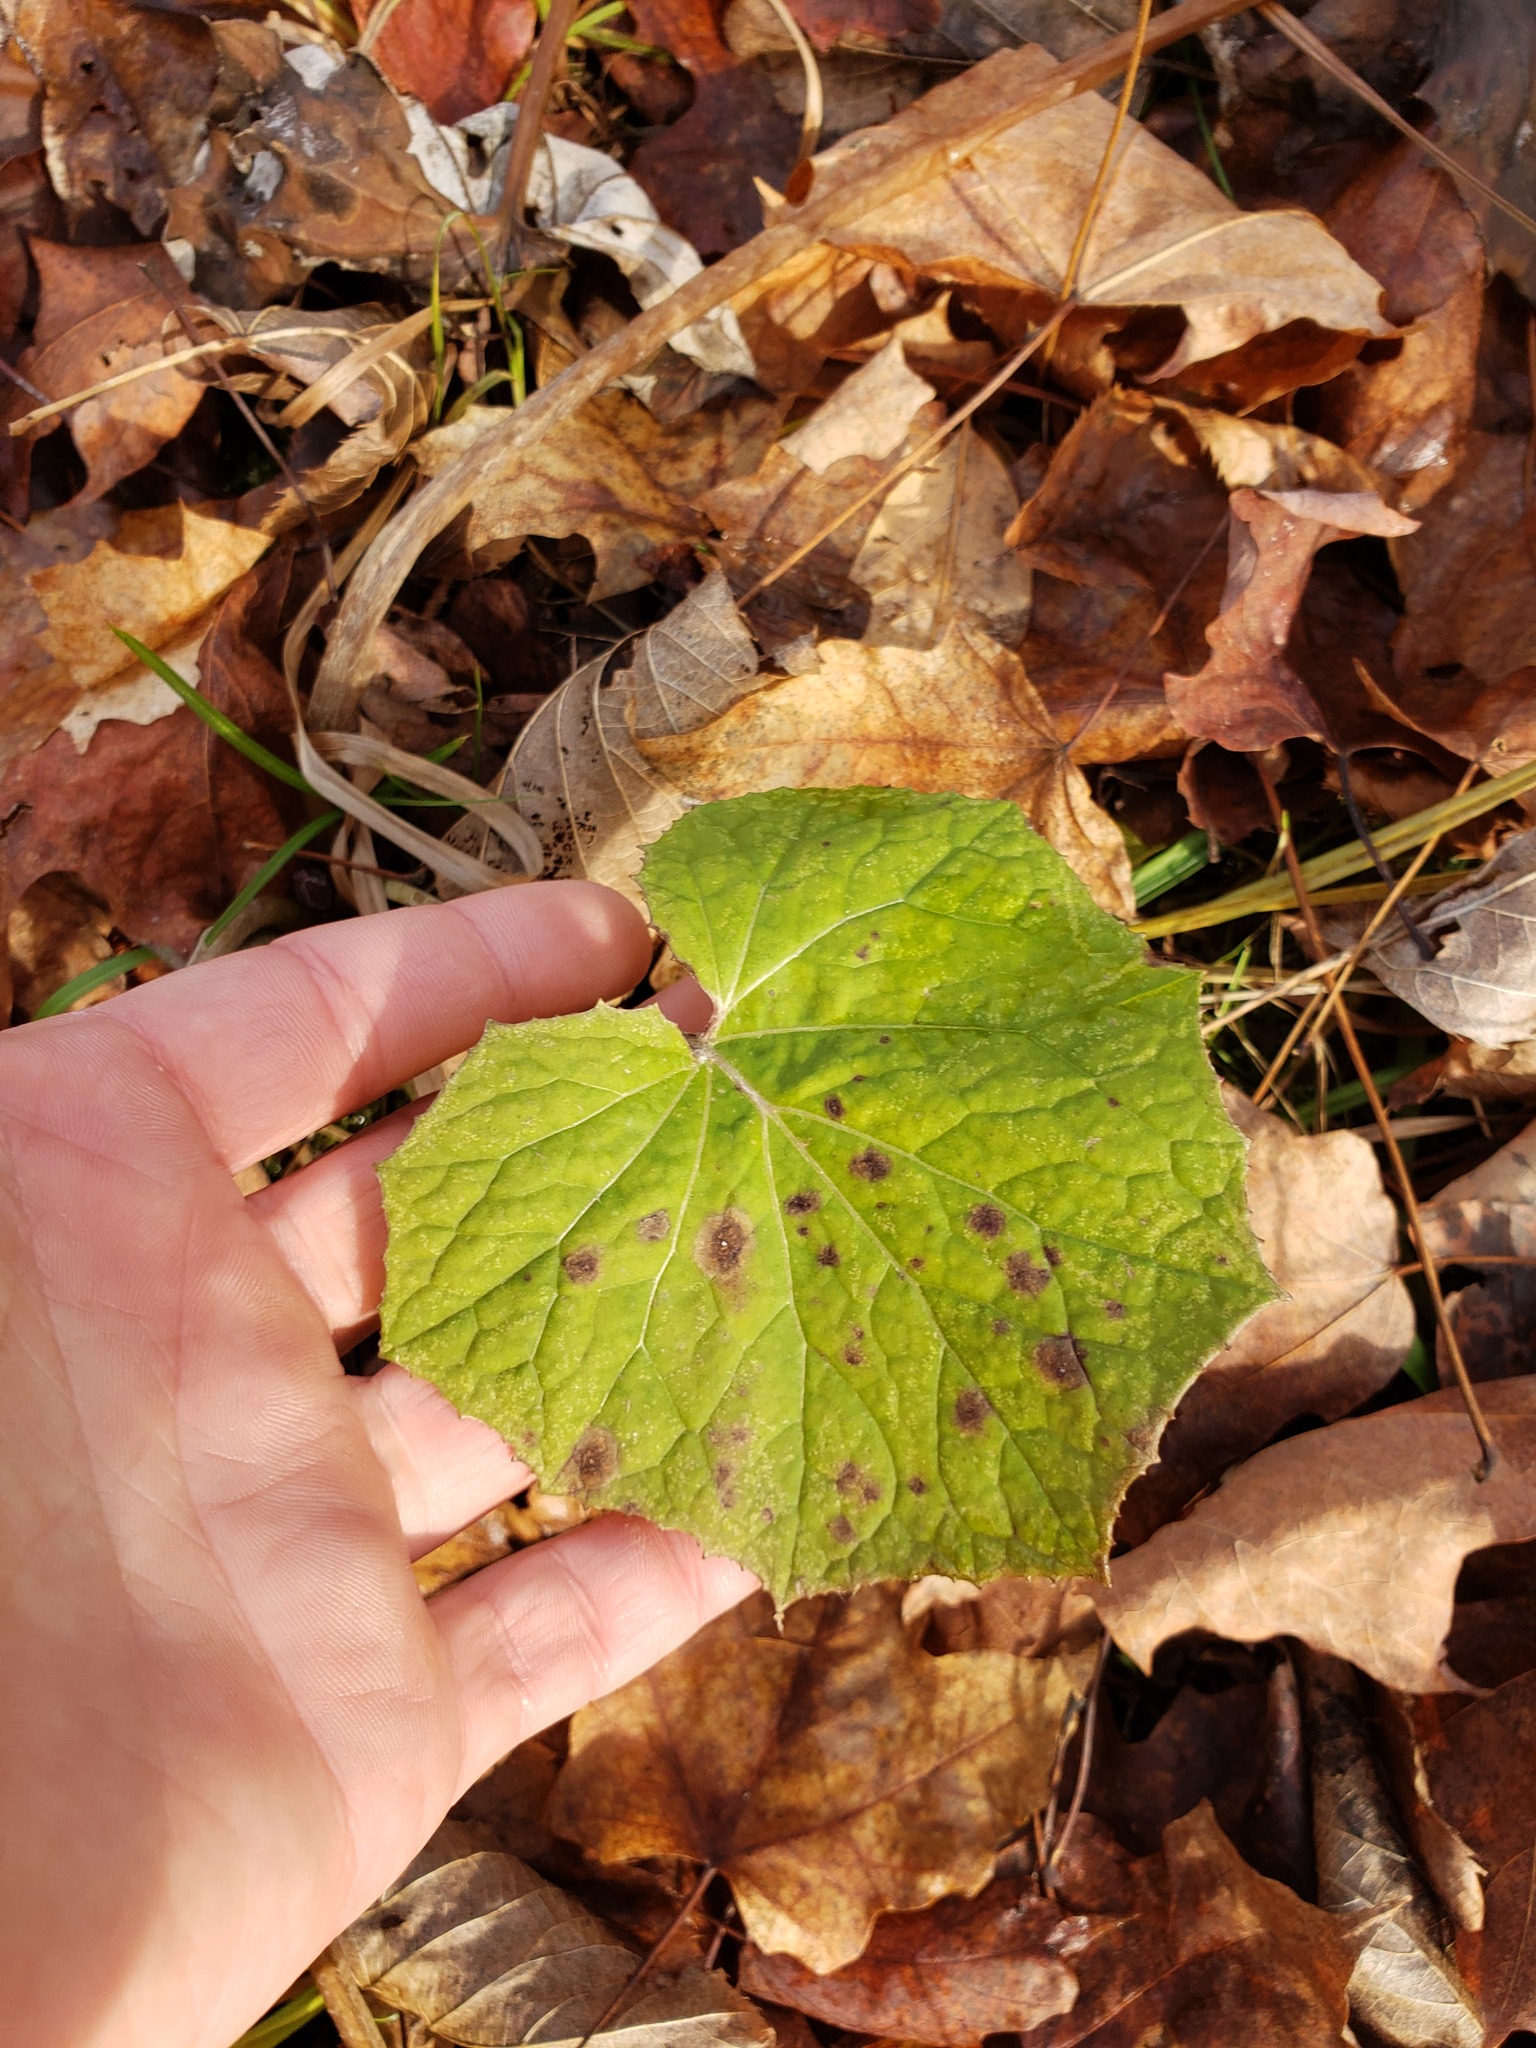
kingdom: Plantae
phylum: Tracheophyta
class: Magnoliopsida
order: Asterales
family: Asteraceae
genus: Tussilago
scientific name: Tussilago farfara
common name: Coltsfoot
